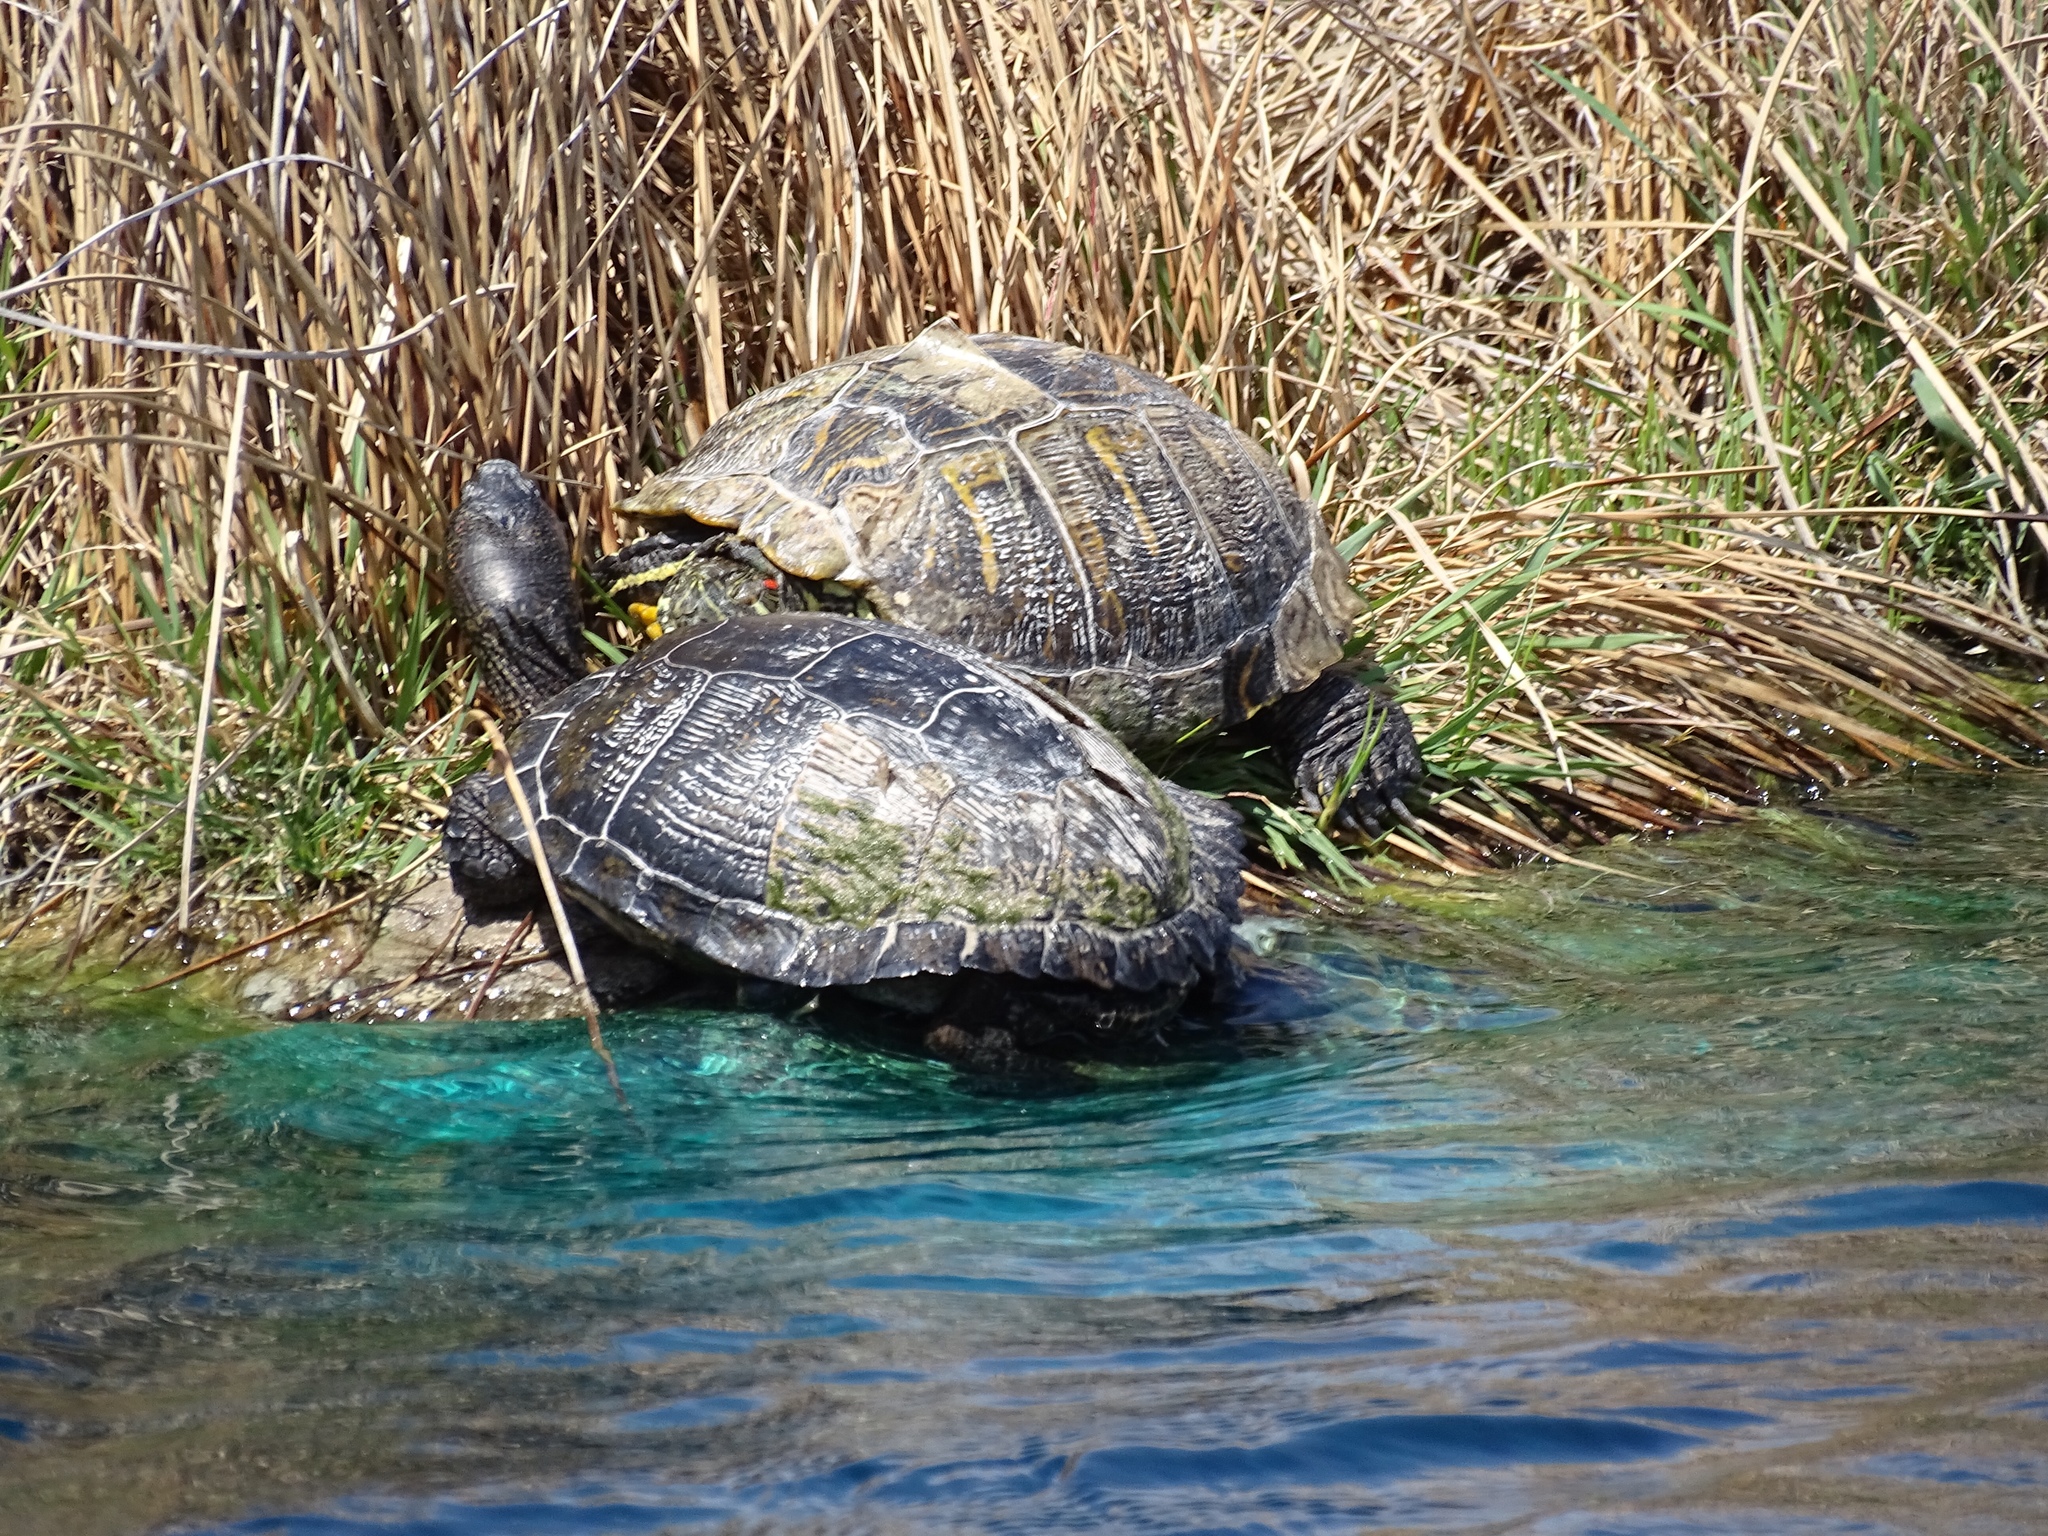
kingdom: Animalia
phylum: Chordata
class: Testudines
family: Emydidae
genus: Trachemys
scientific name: Trachemys scripta
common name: Slider
